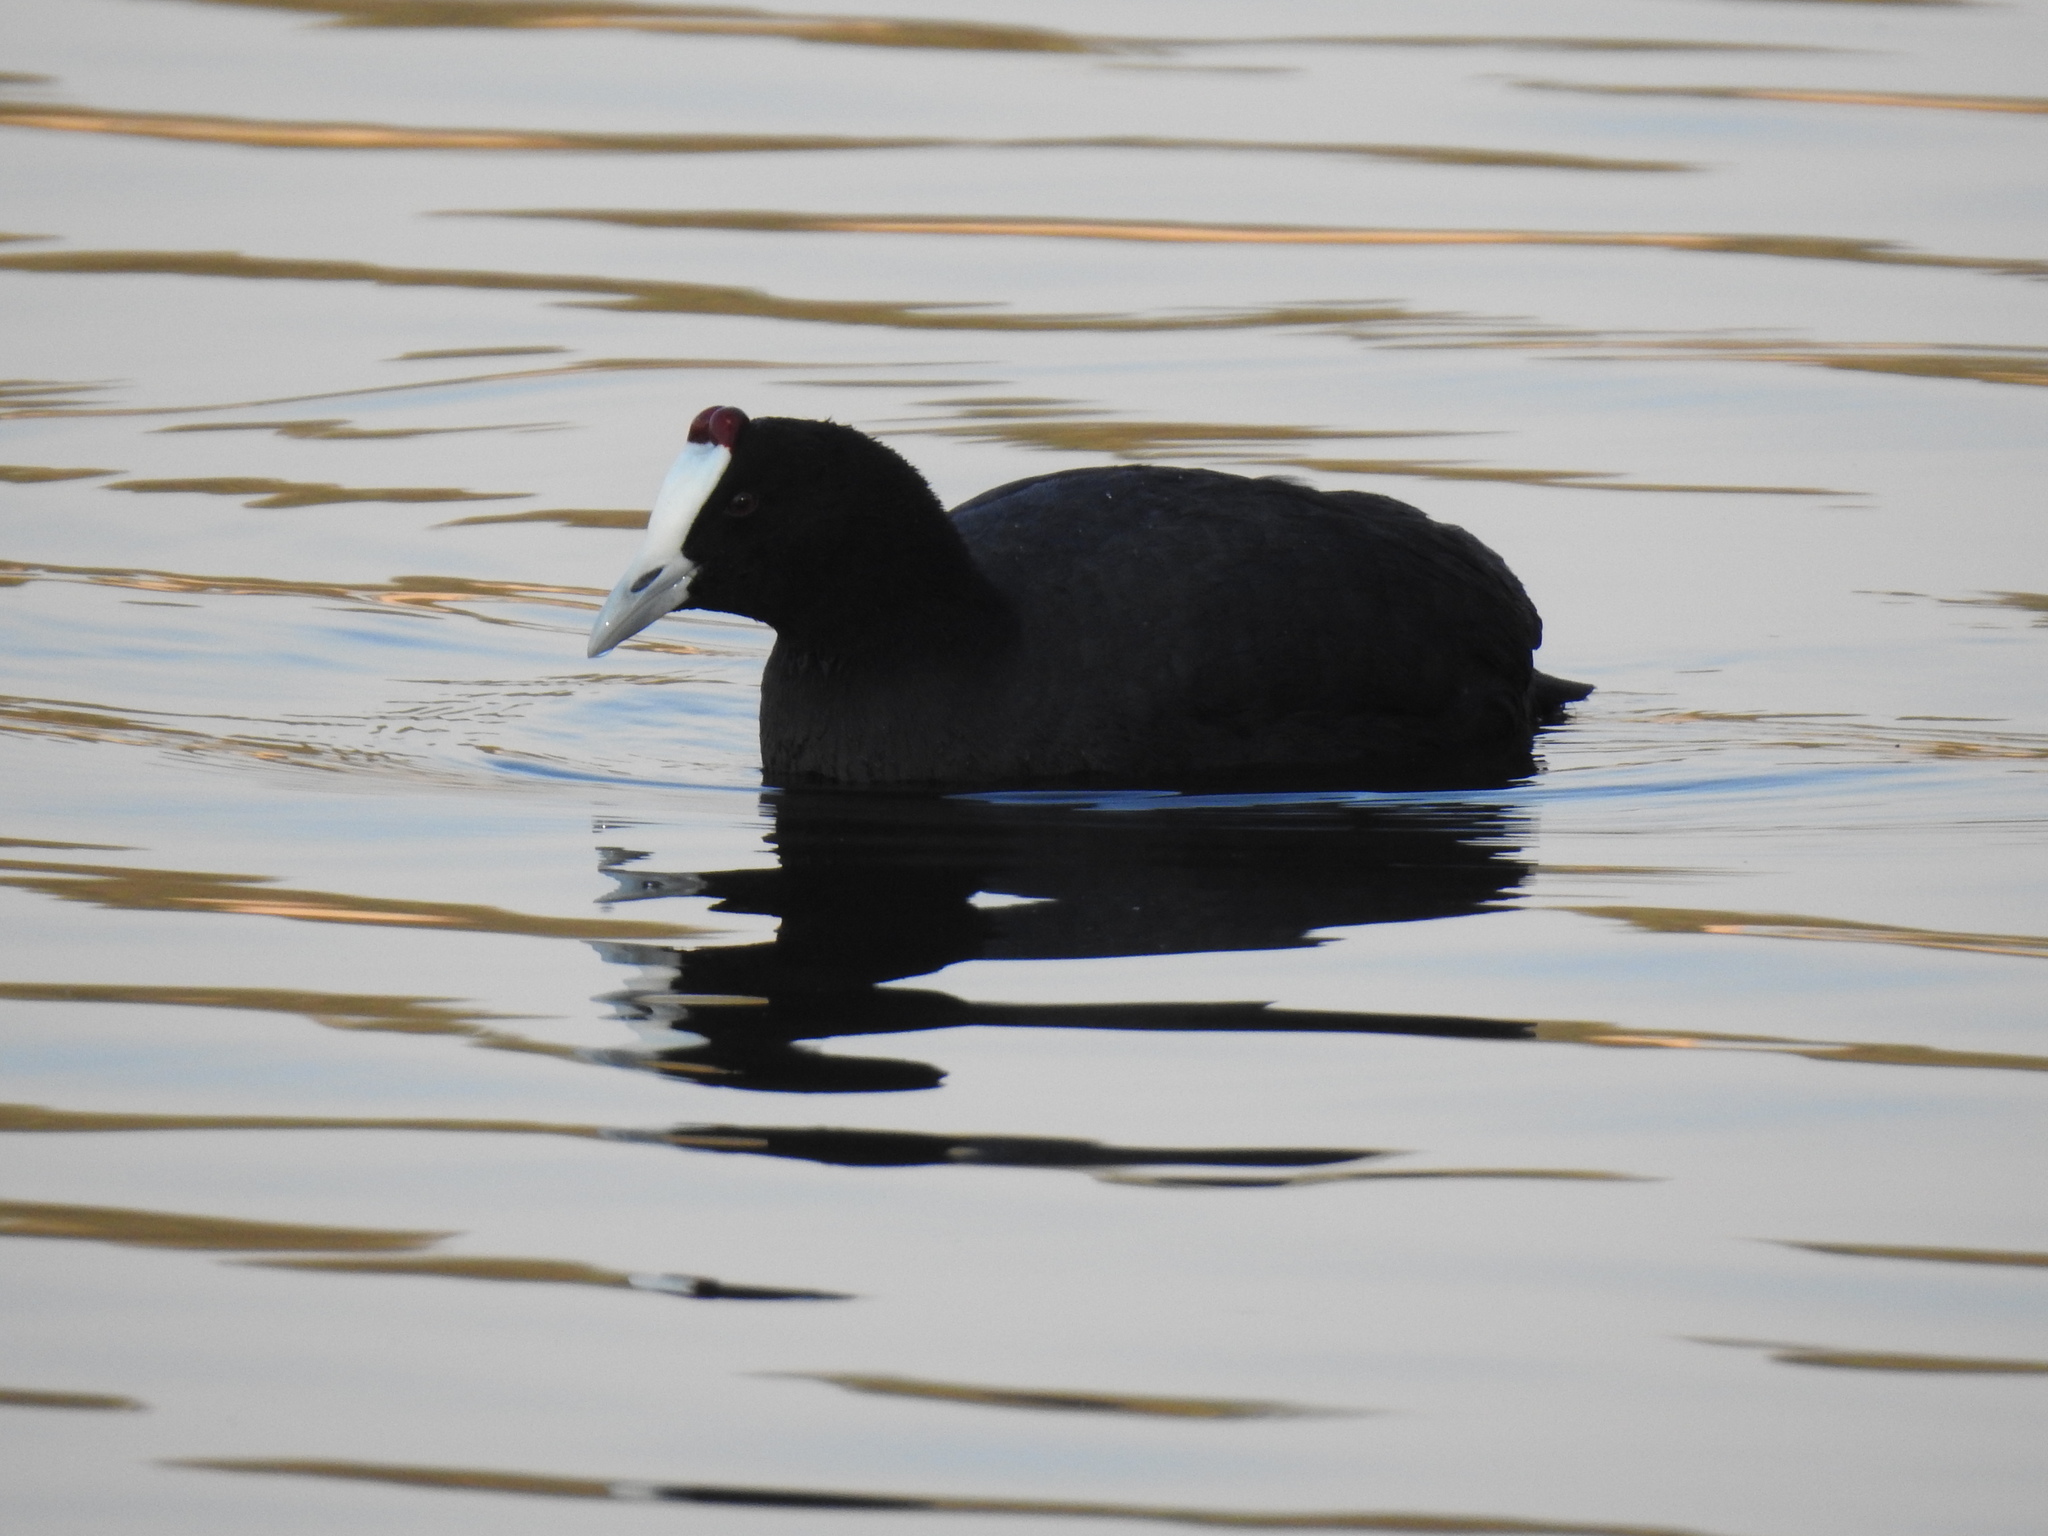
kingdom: Animalia
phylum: Chordata
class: Aves
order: Gruiformes
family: Rallidae
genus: Fulica
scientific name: Fulica cristata
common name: Red-knobbed coot
